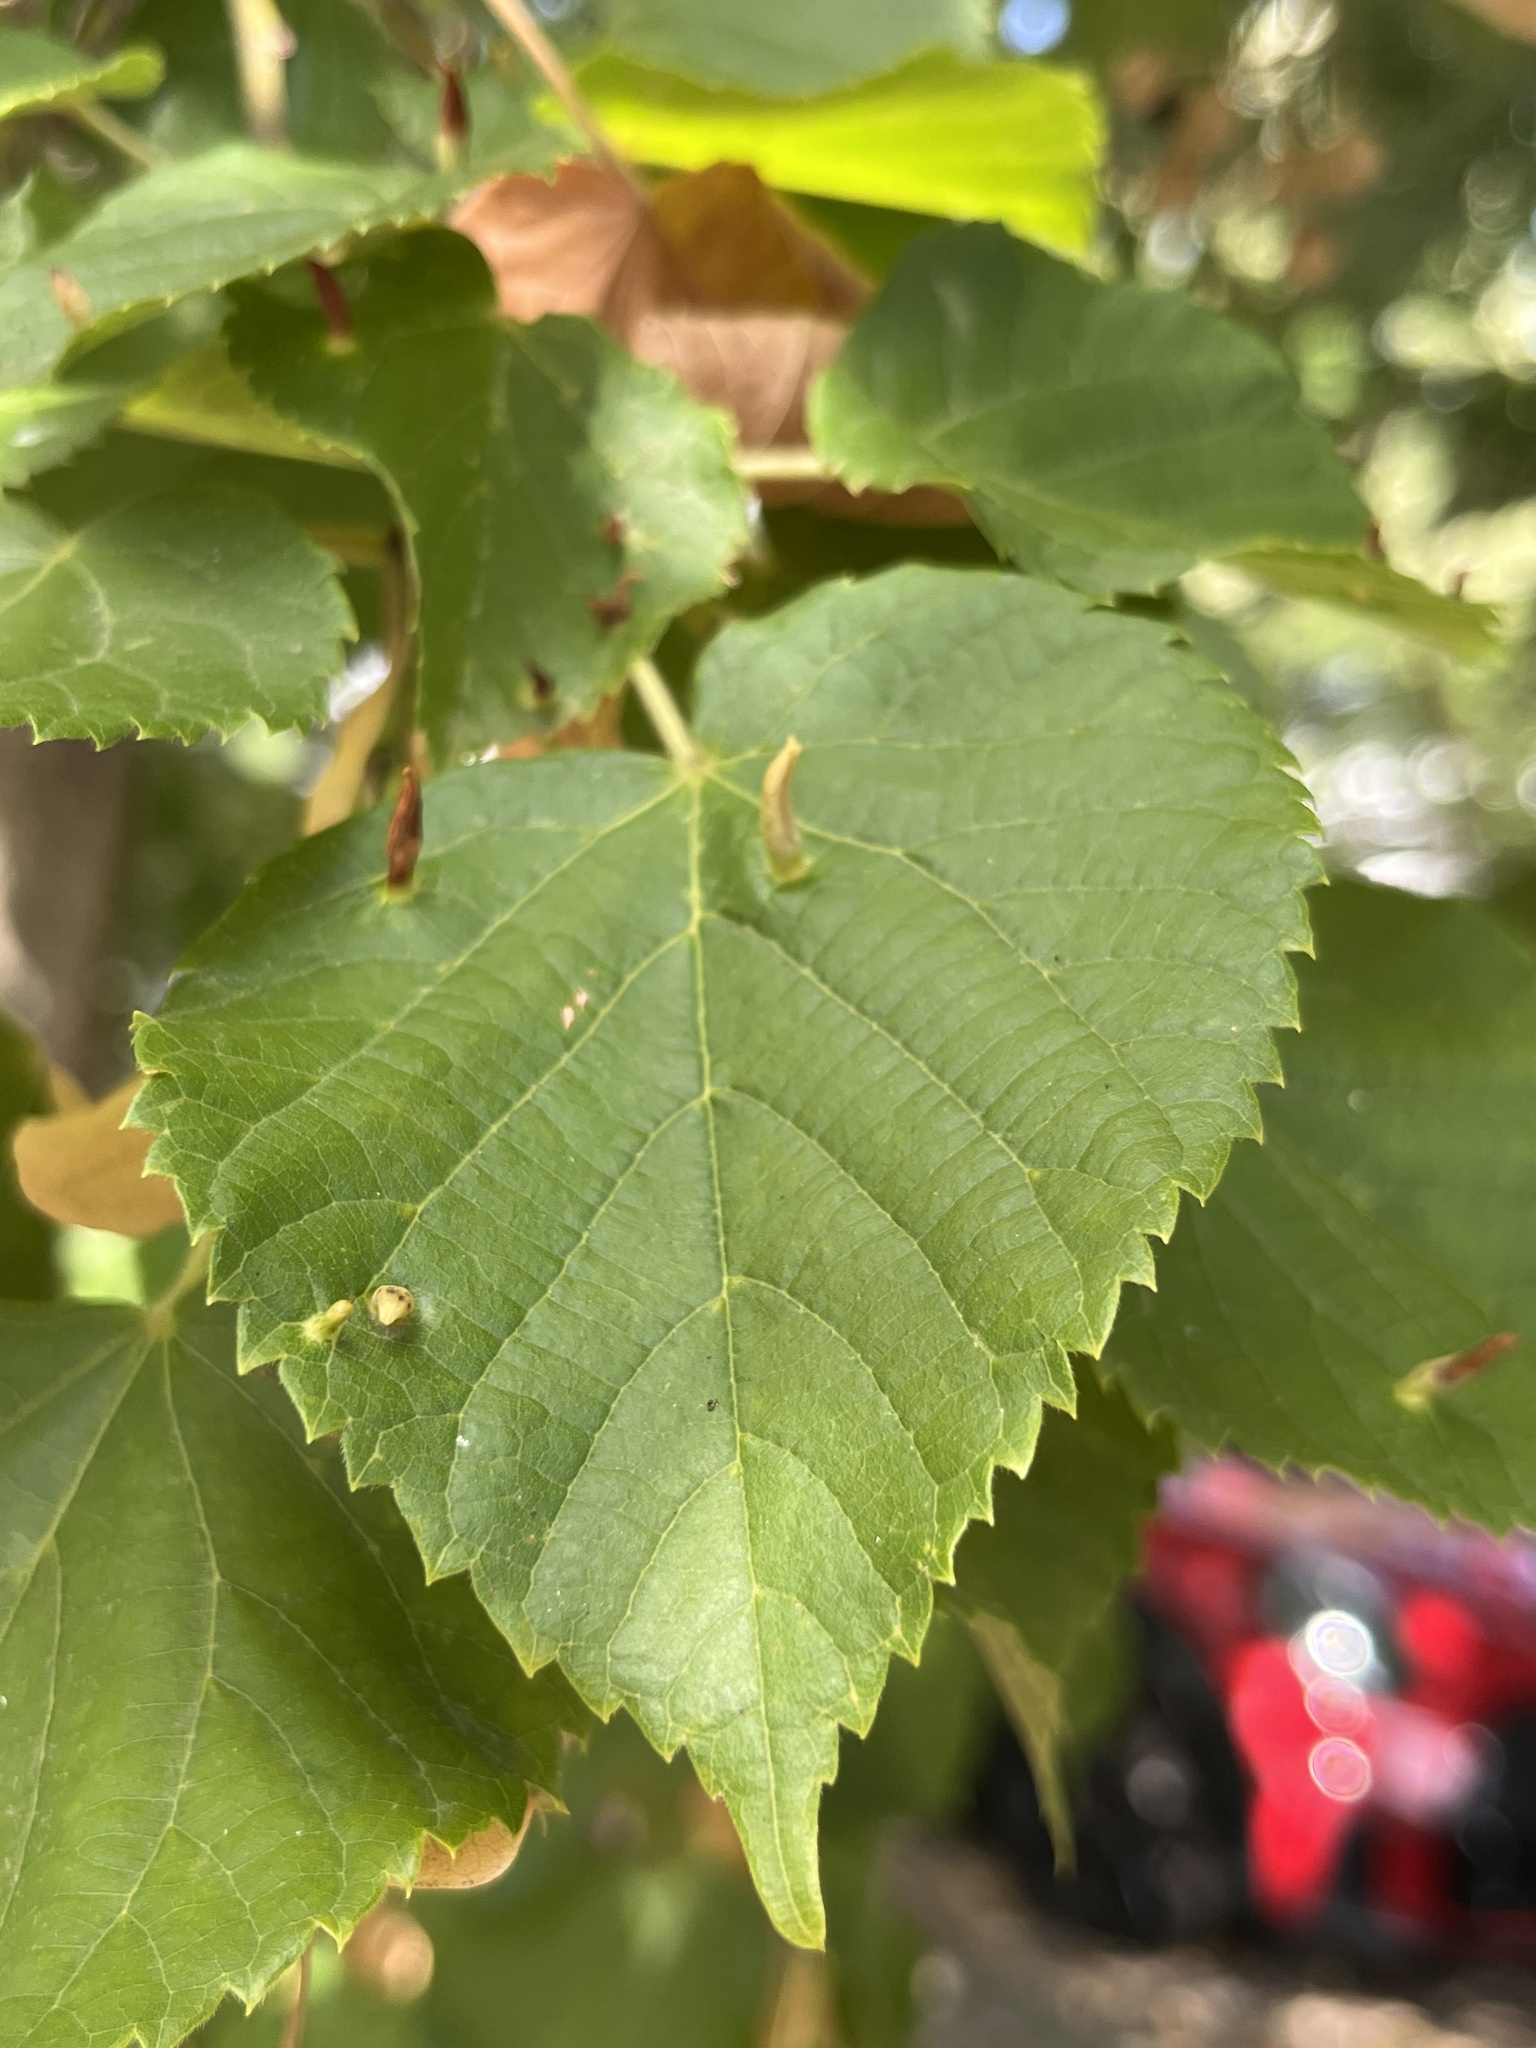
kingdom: Animalia
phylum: Arthropoda
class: Arachnida
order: Trombidiformes
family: Eriophyidae
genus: Eriophyes
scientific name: Eriophyes tiliae
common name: Red nail gall mite
